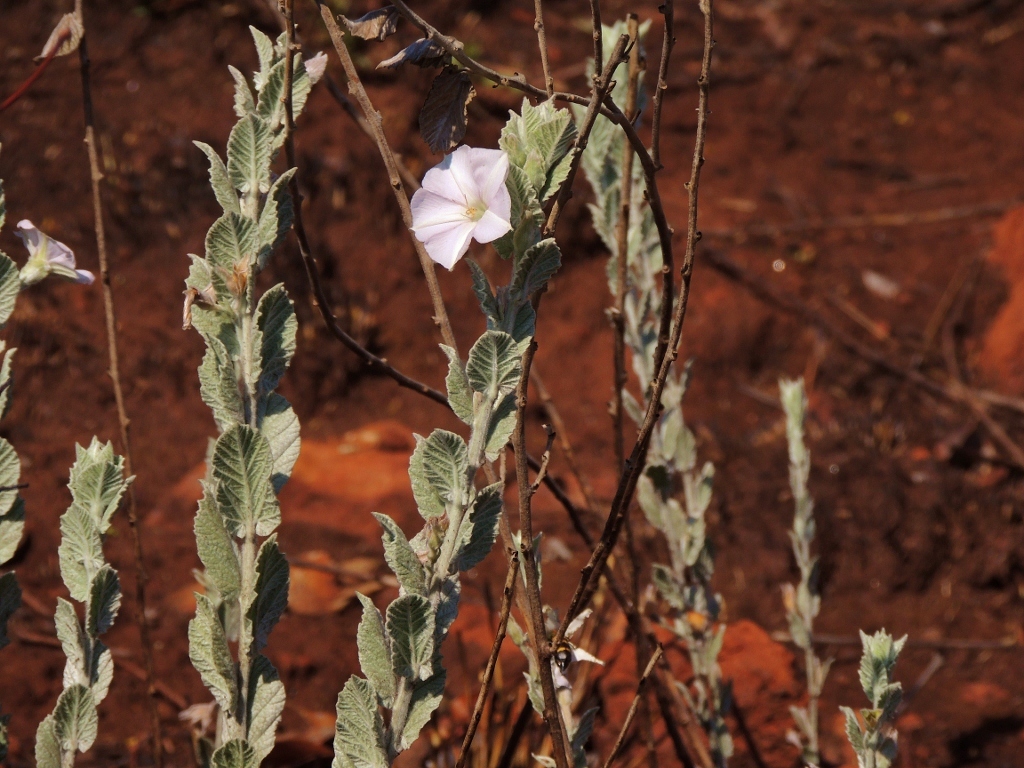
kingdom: Plantae
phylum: Tracheophyta
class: Magnoliopsida
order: Solanales
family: Convolvulaceae
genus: Convolvulus
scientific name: Convolvulus randii
